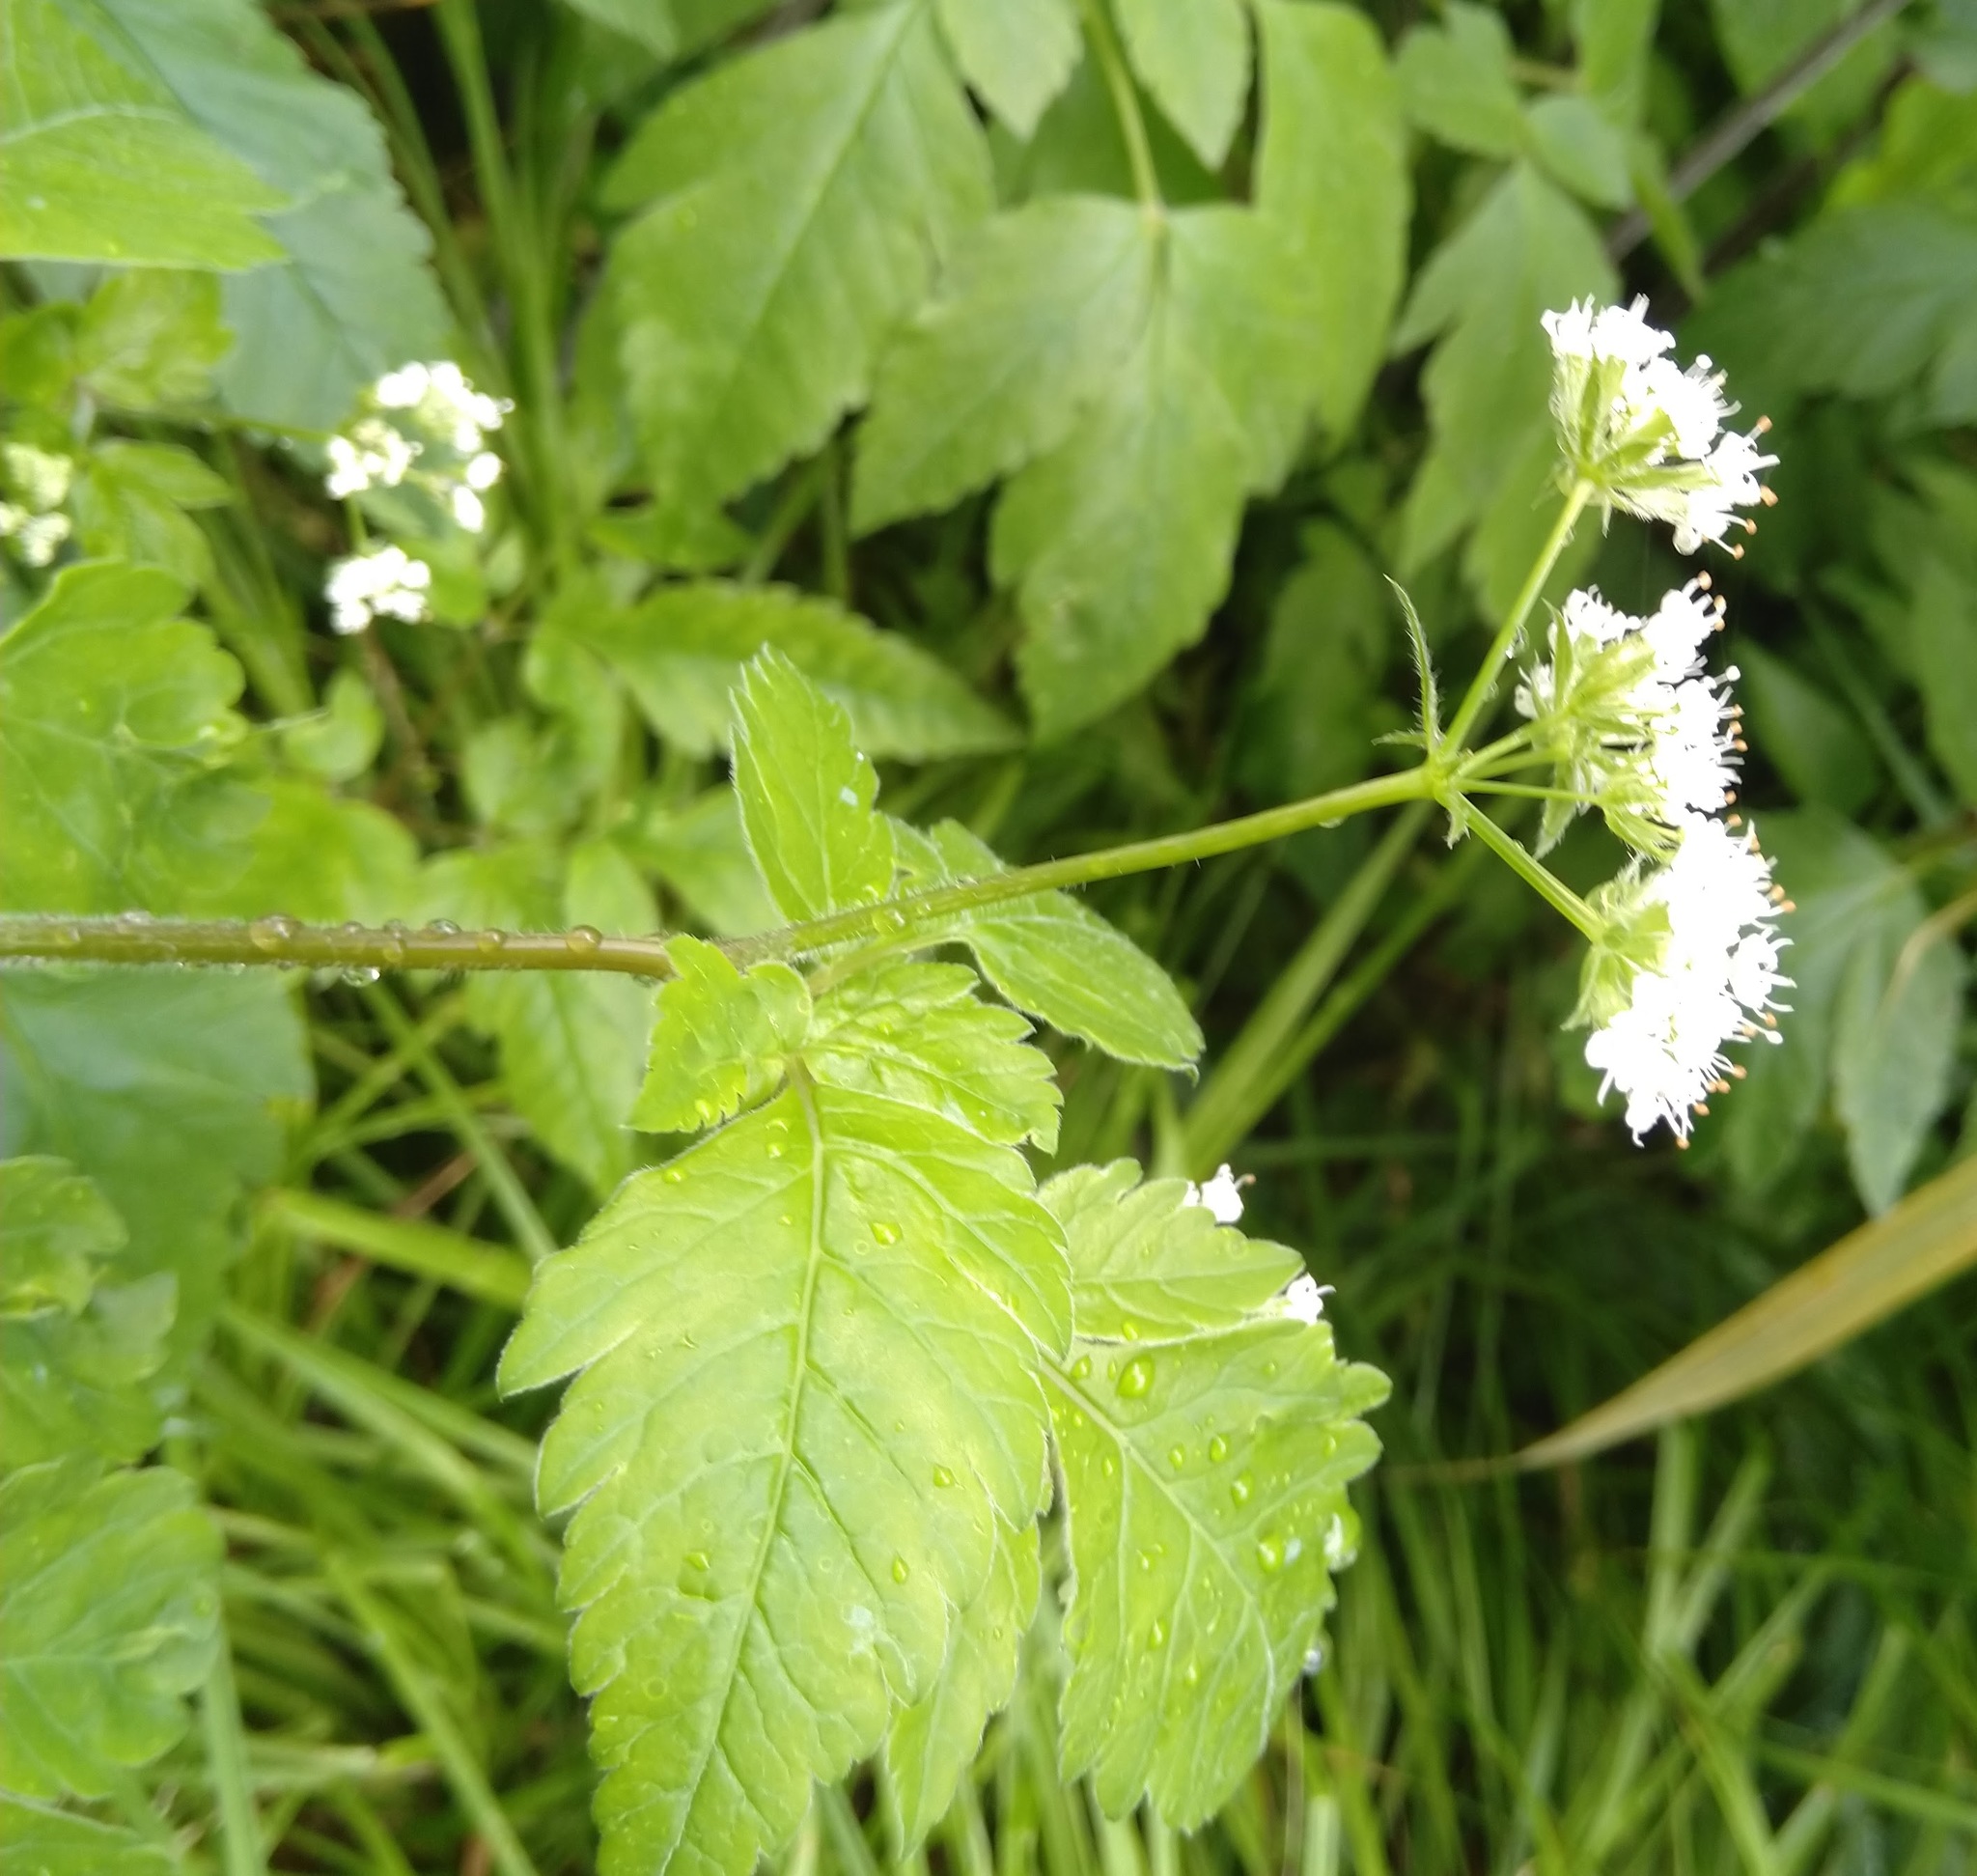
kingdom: Plantae
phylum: Tracheophyta
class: Magnoliopsida
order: Apiales
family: Apiaceae
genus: Osmorhiza
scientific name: Osmorhiza longistylis
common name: Smooth sweet cicely
